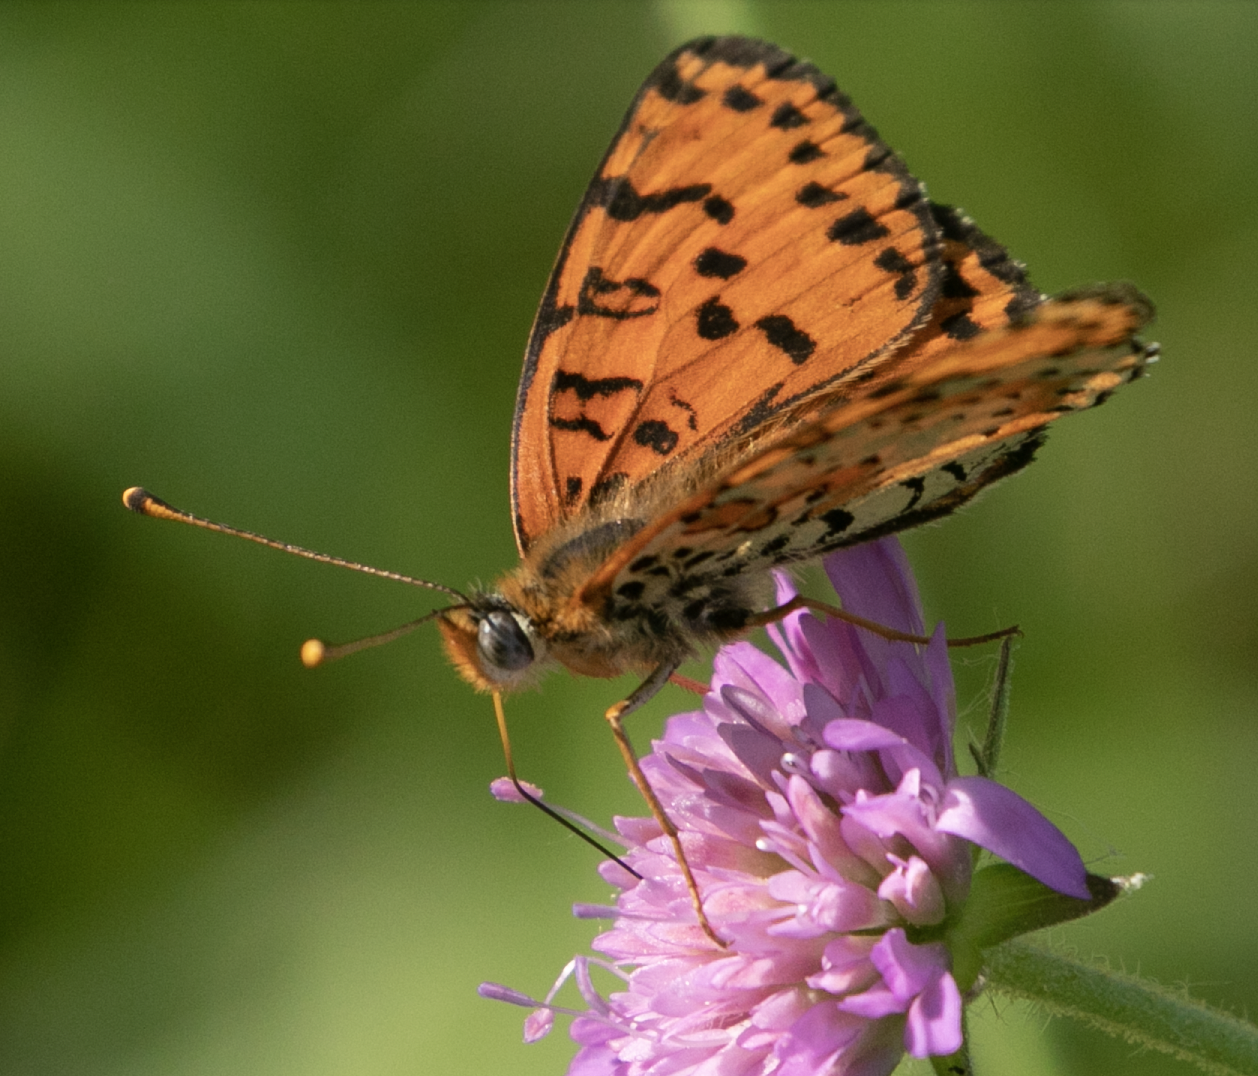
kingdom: Animalia
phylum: Arthropoda
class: Insecta
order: Lepidoptera
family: Nymphalidae
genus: Melitaea
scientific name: Melitaea didyma
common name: Spotted fritillary
